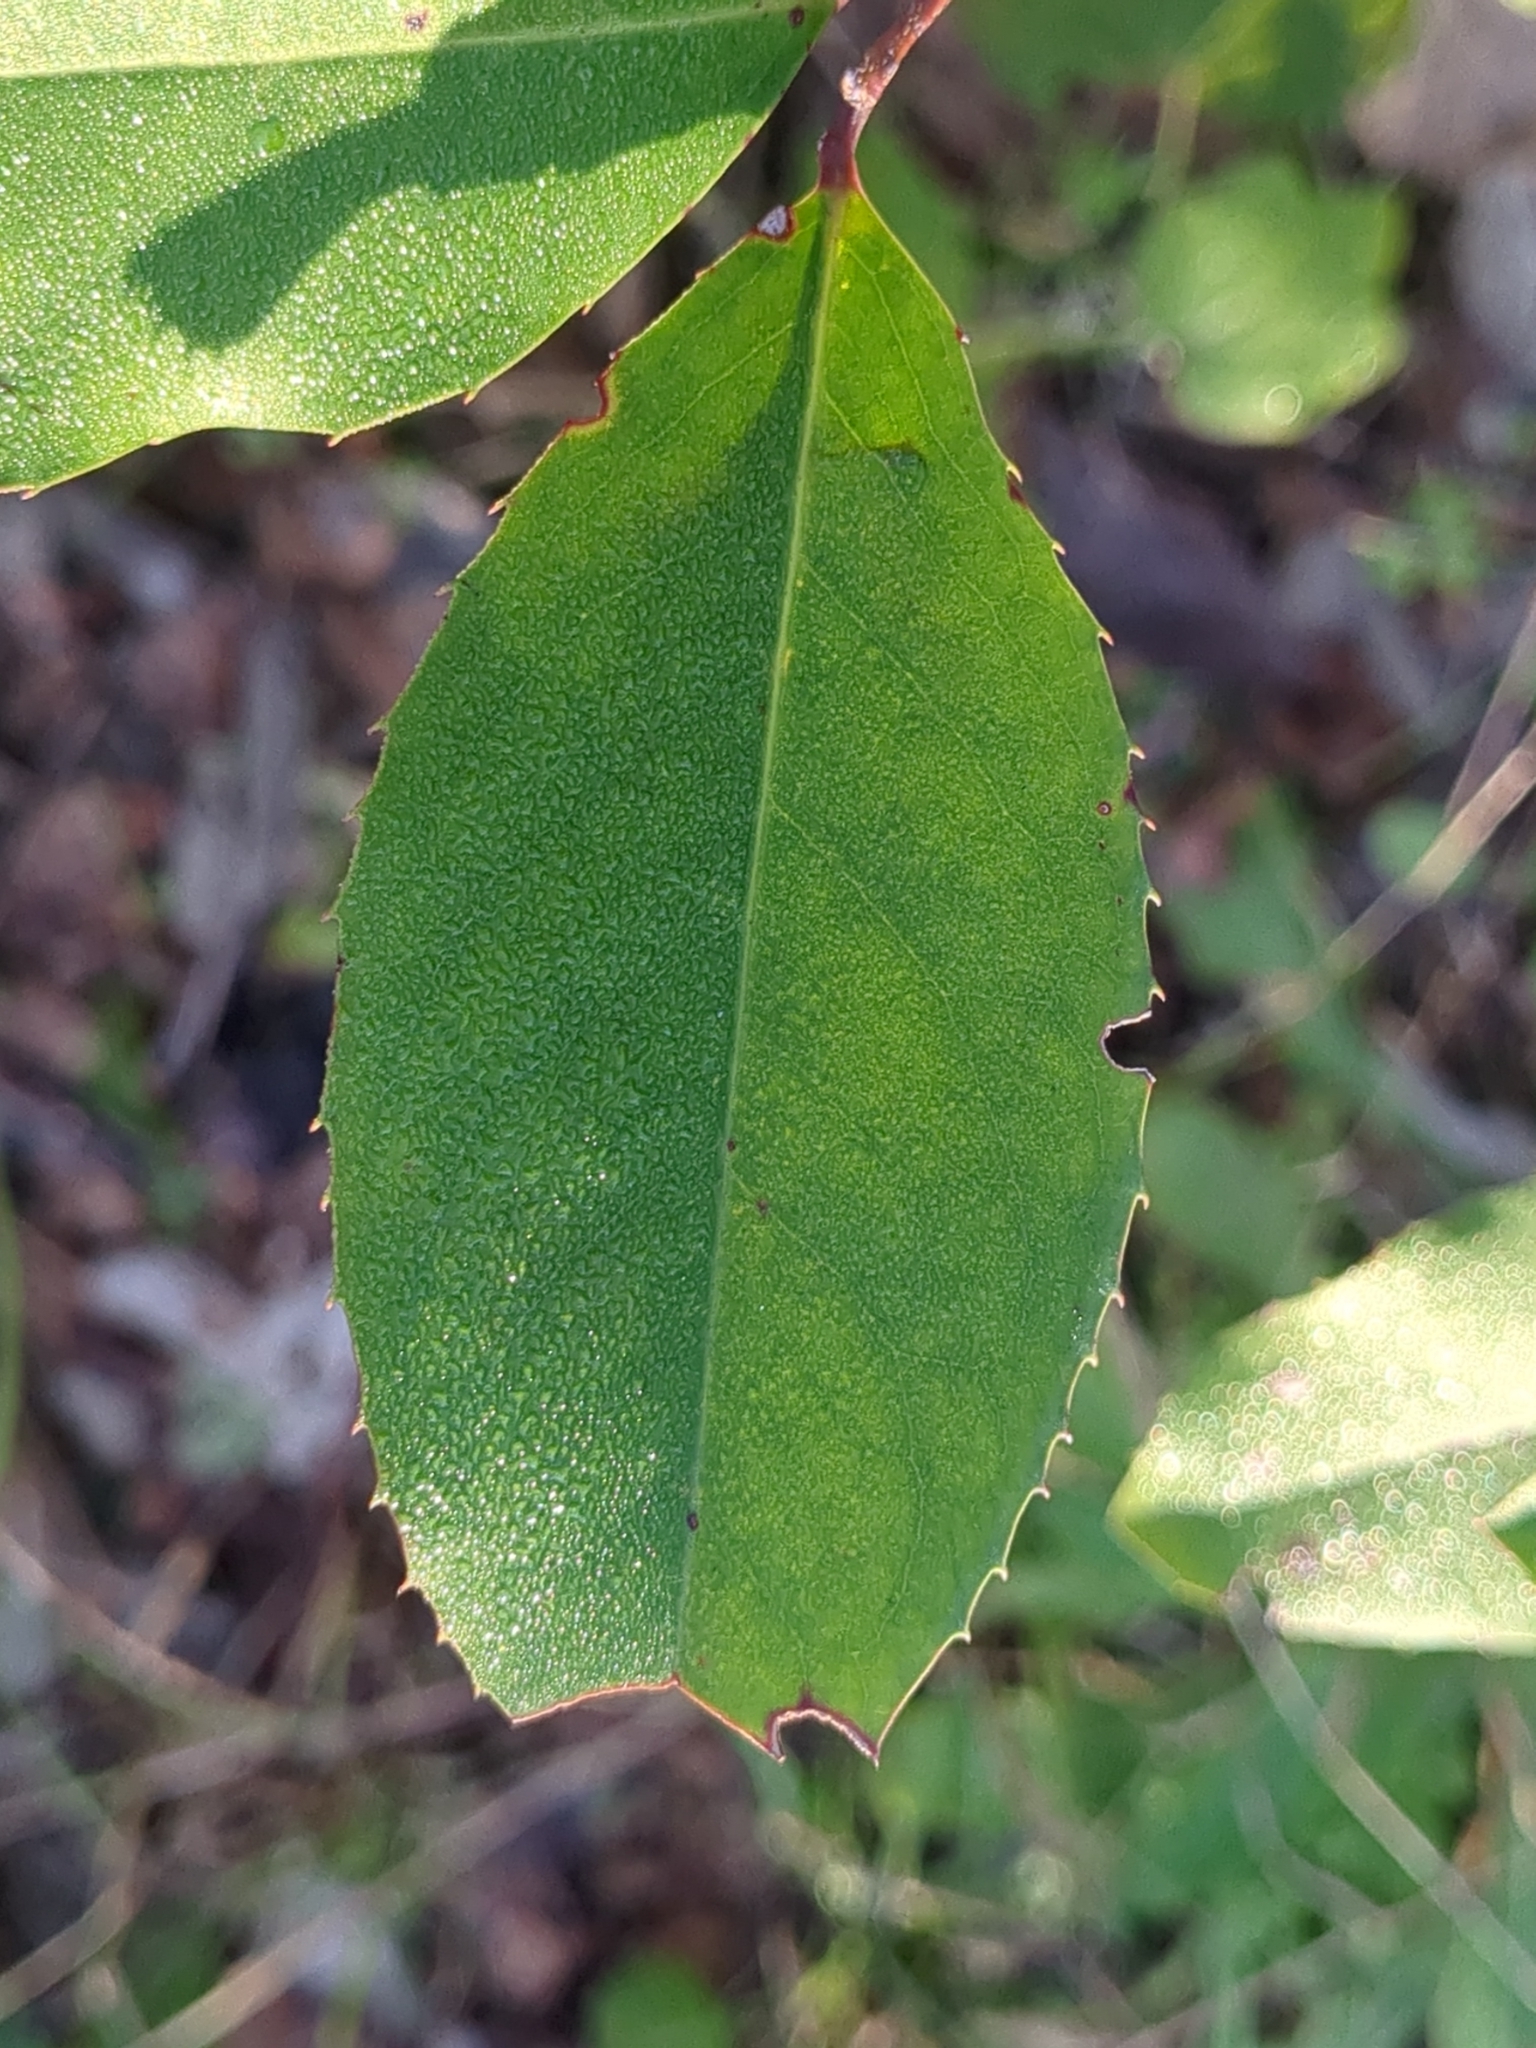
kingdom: Plantae
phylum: Tracheophyta
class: Magnoliopsida
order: Rosales
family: Rosaceae
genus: Prunus
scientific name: Prunus caroliniana
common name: Carolina laurel cherry
